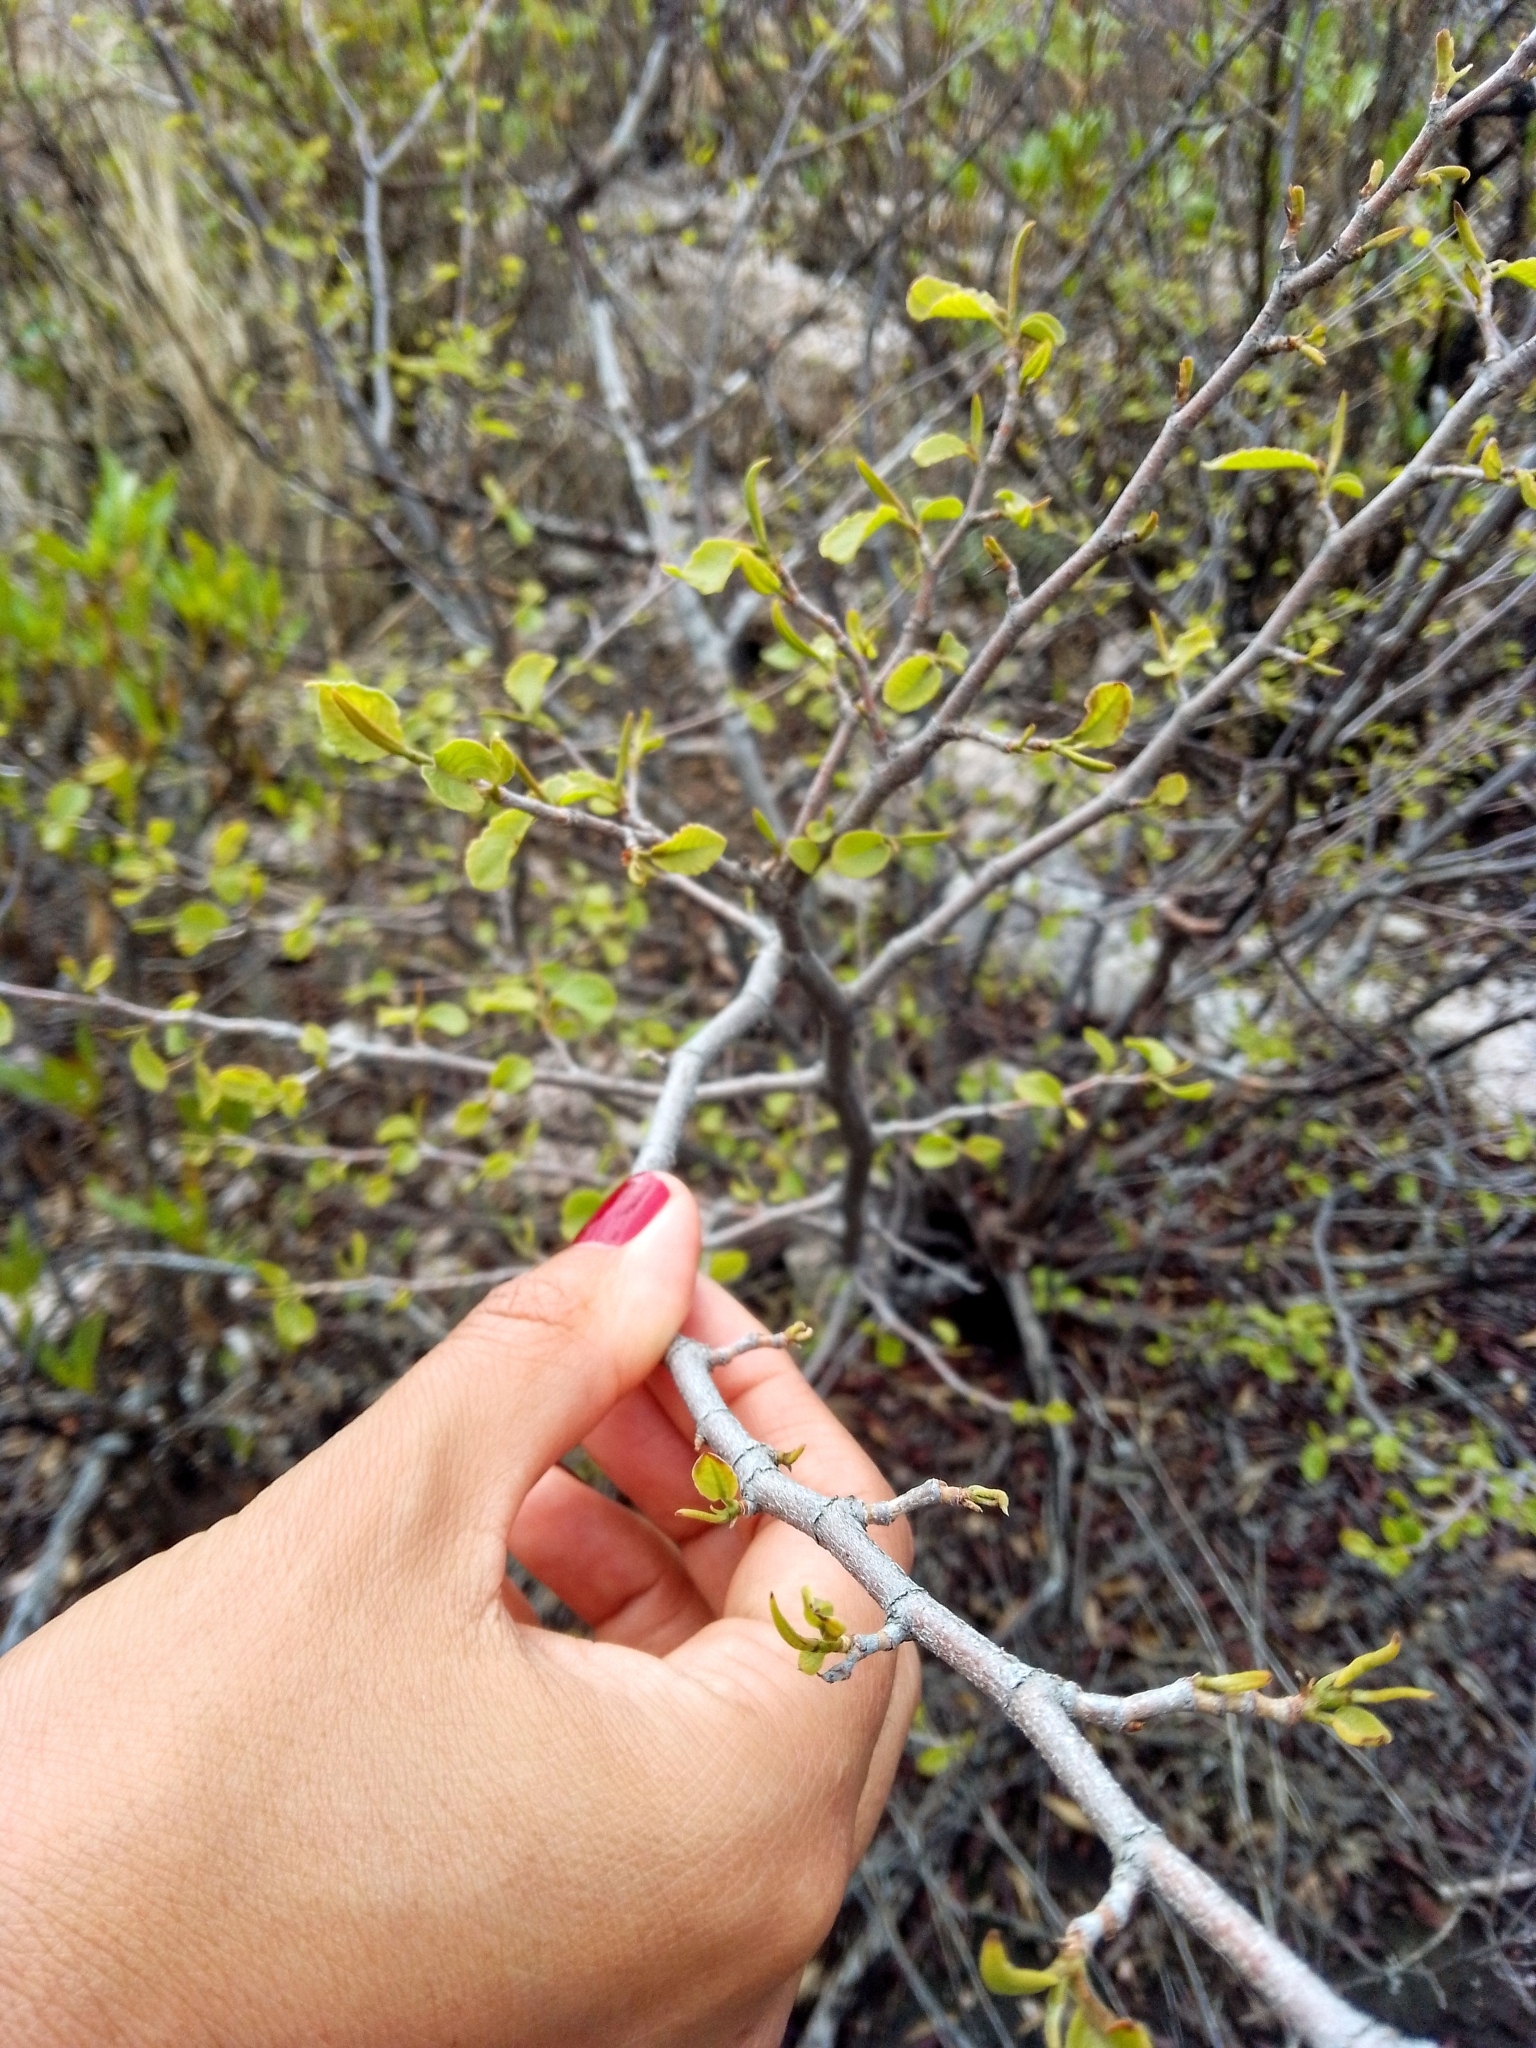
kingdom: Plantae
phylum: Tracheophyta
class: Magnoliopsida
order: Caryophyllales
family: Polygonaceae
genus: Ruprechtia
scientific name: Ruprechtia apetala
